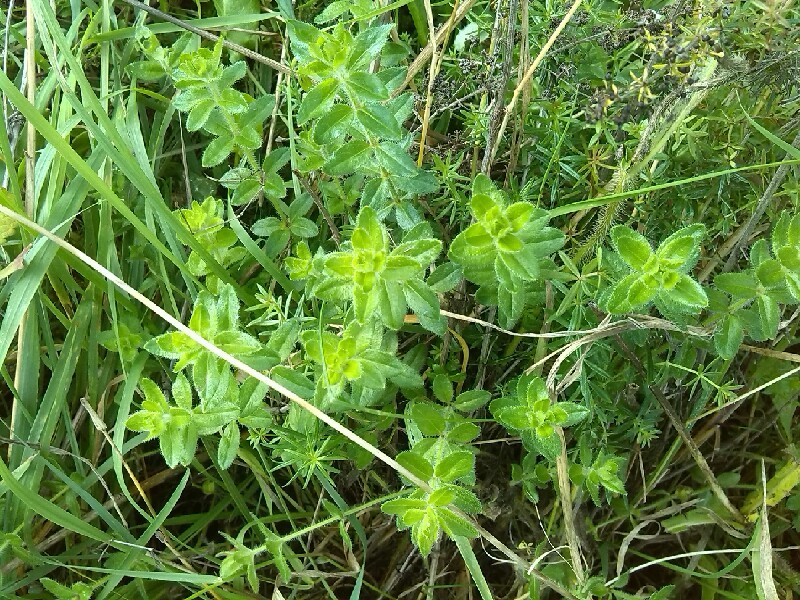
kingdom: Plantae
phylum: Tracheophyta
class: Magnoliopsida
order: Gentianales
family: Rubiaceae
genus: Cruciata
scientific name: Cruciata laevipes
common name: Crosswort
